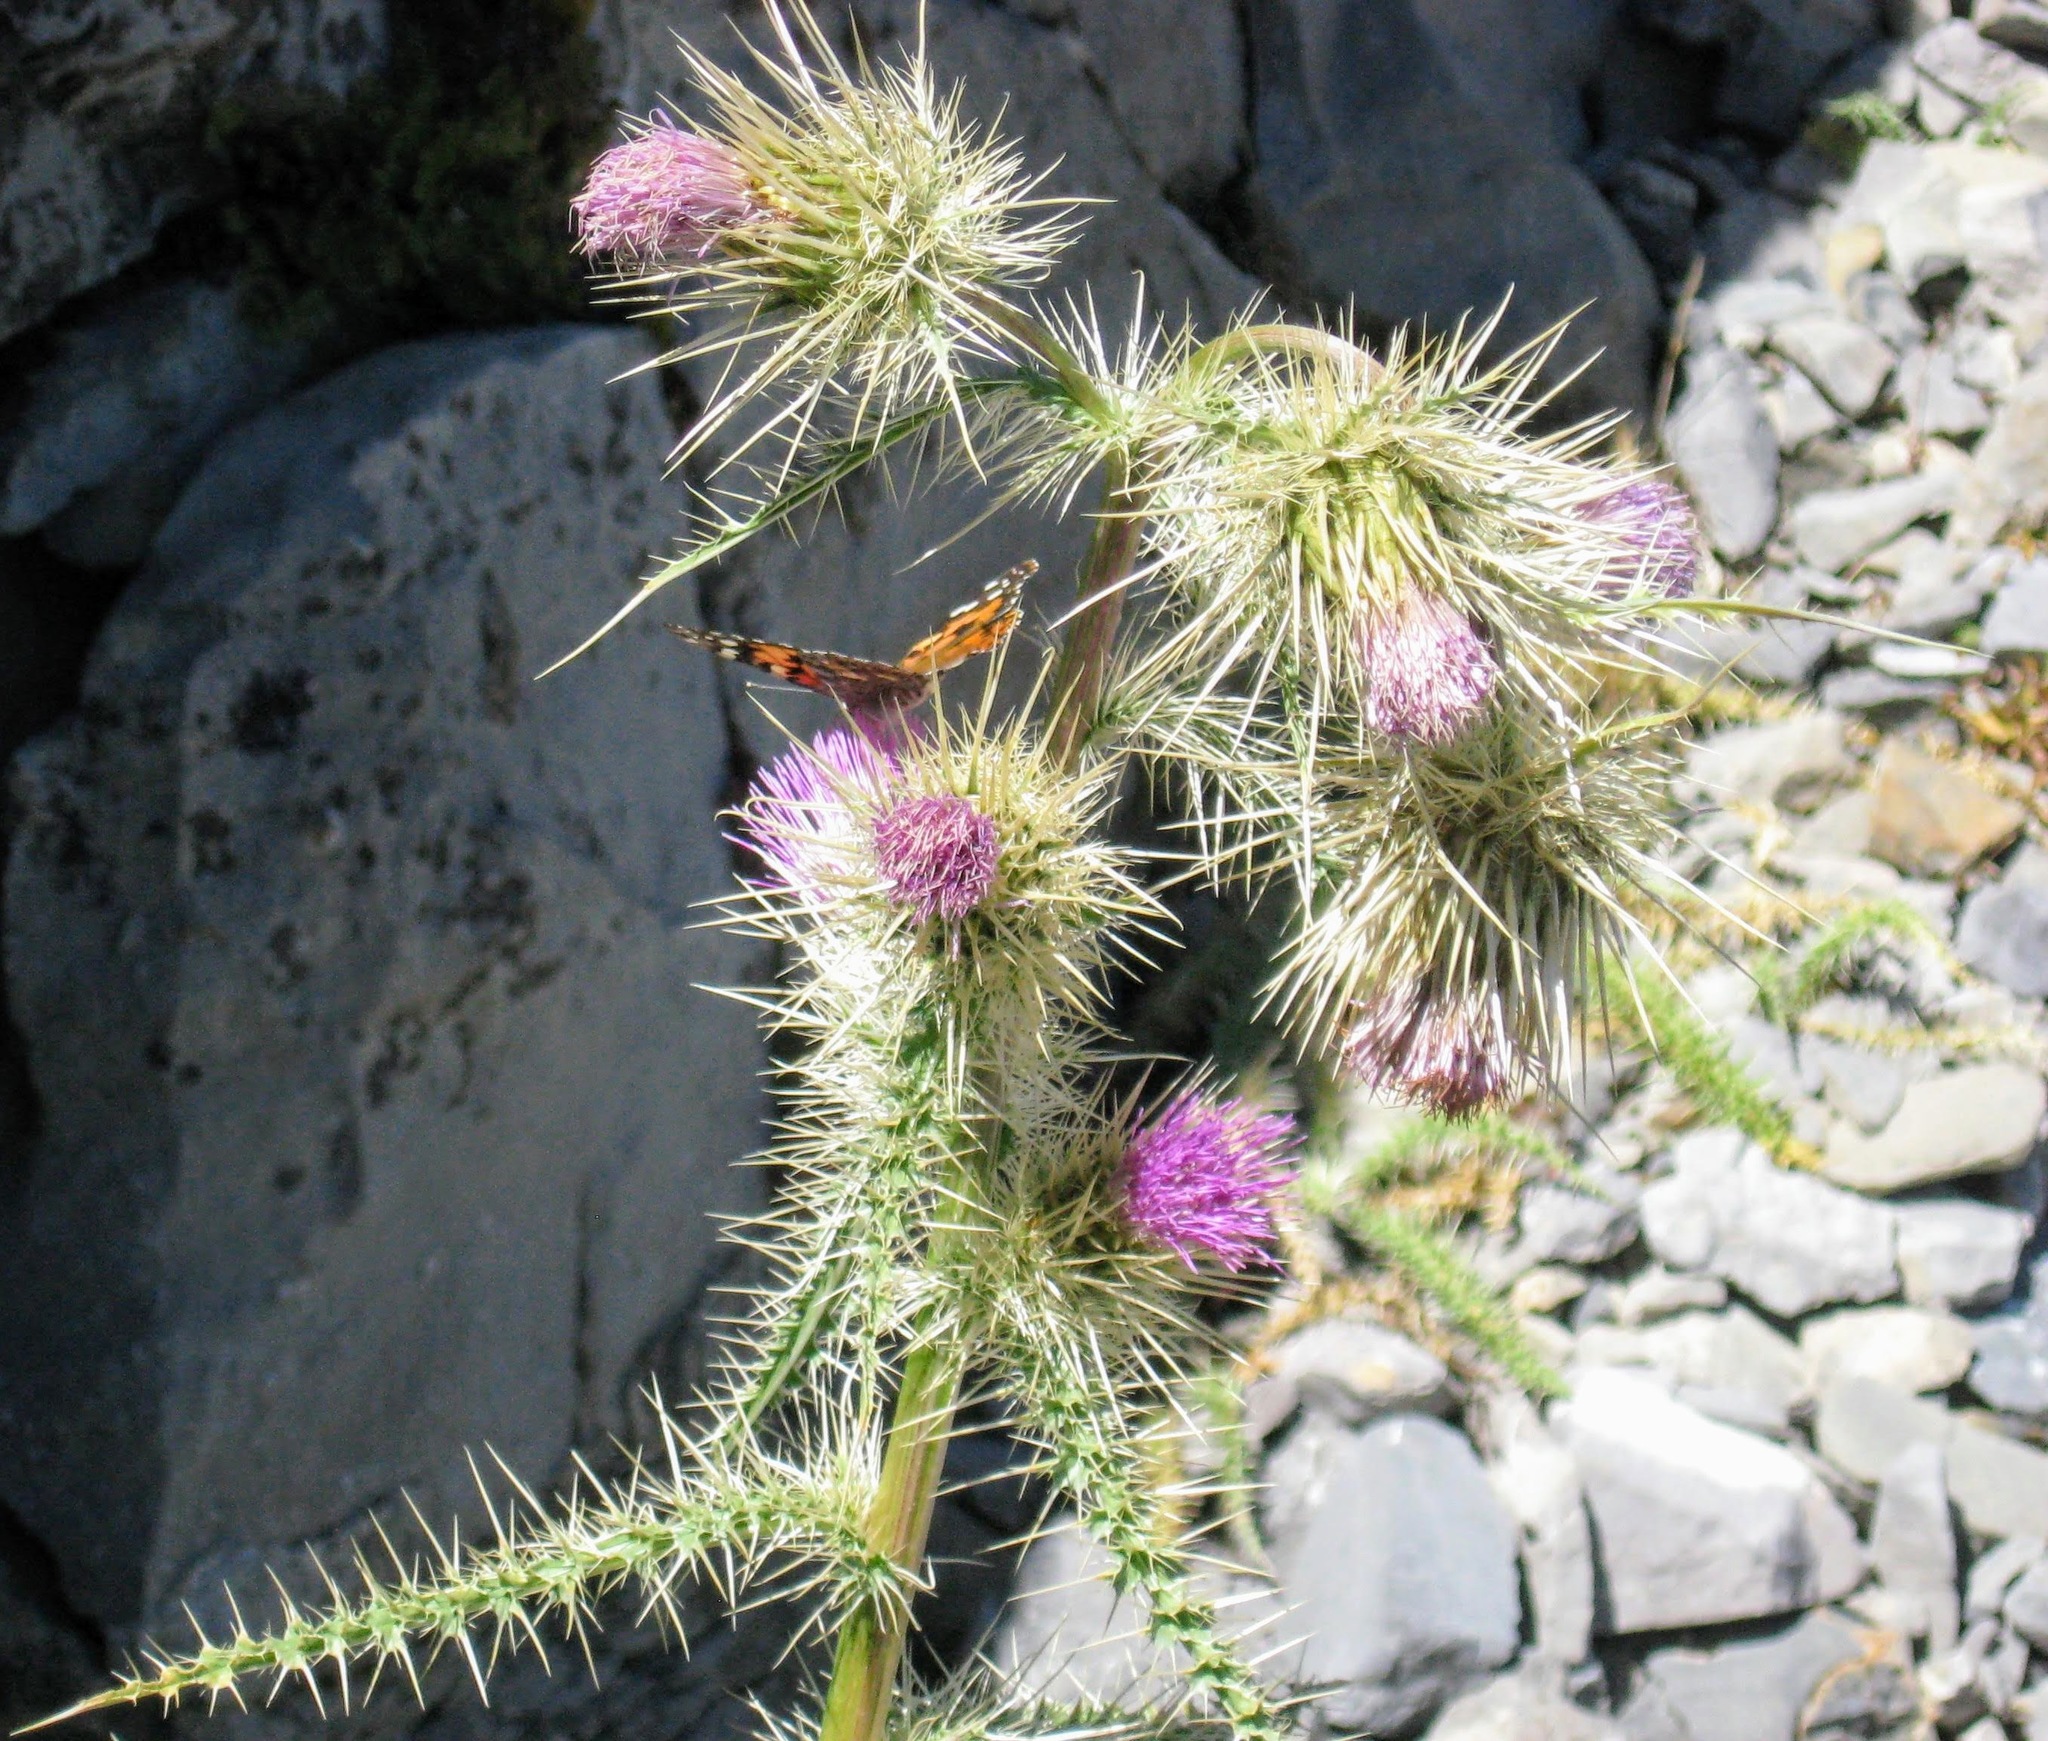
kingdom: Plantae
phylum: Tracheophyta
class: Magnoliopsida
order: Asterales
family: Asteraceae
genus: Cirsium
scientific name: Cirsium eatonii
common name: Eaton's thistle
